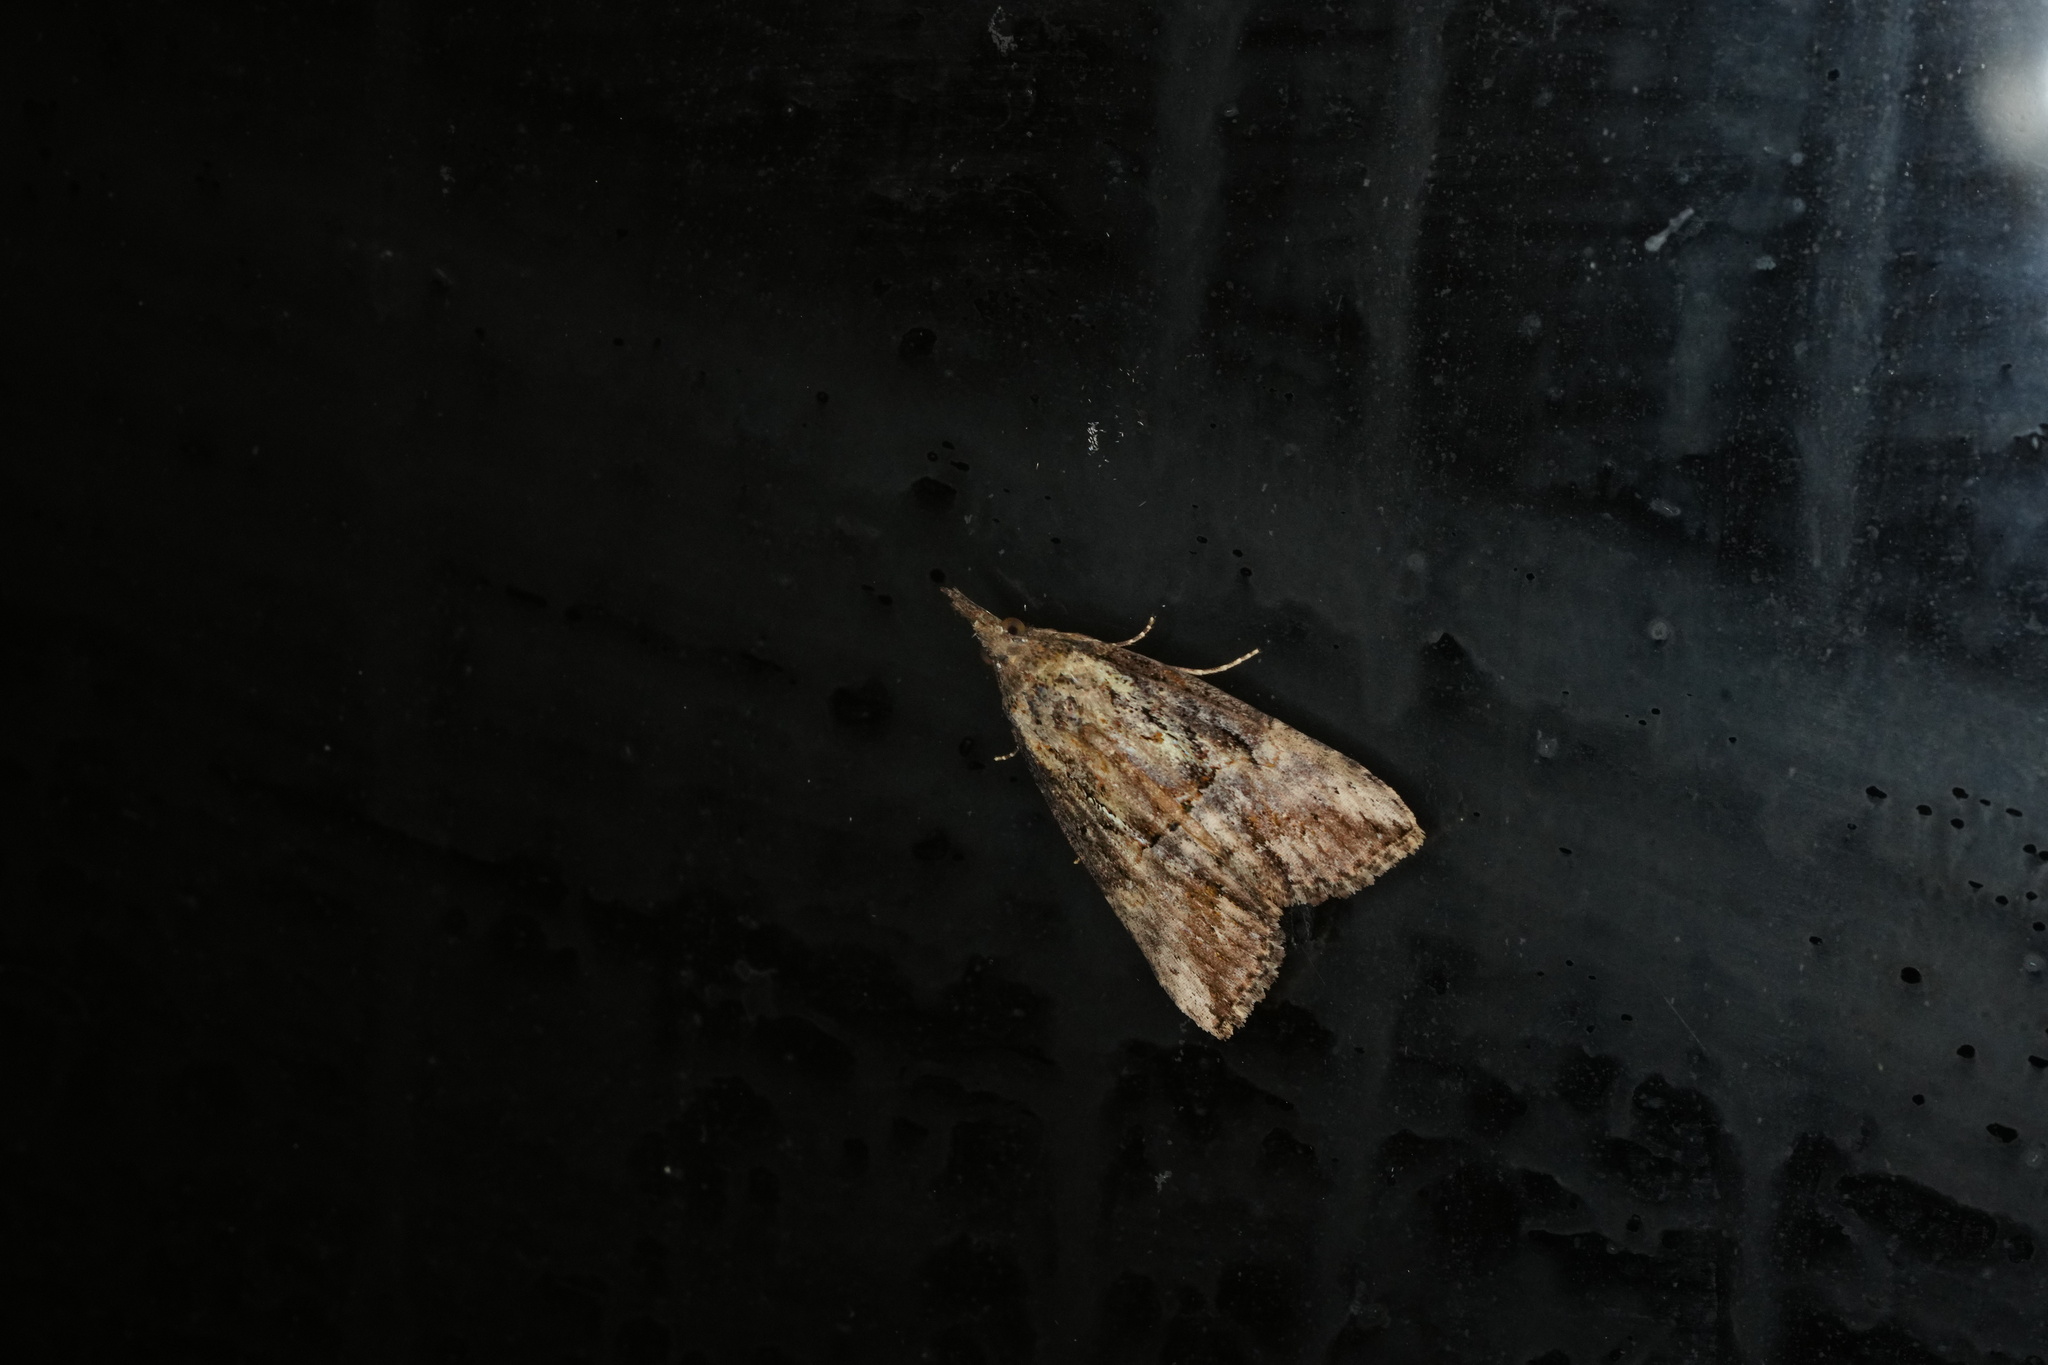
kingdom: Animalia
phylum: Arthropoda
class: Insecta
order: Lepidoptera
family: Erebidae
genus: Hypena
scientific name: Hypena scabra
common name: Green cloverworm
